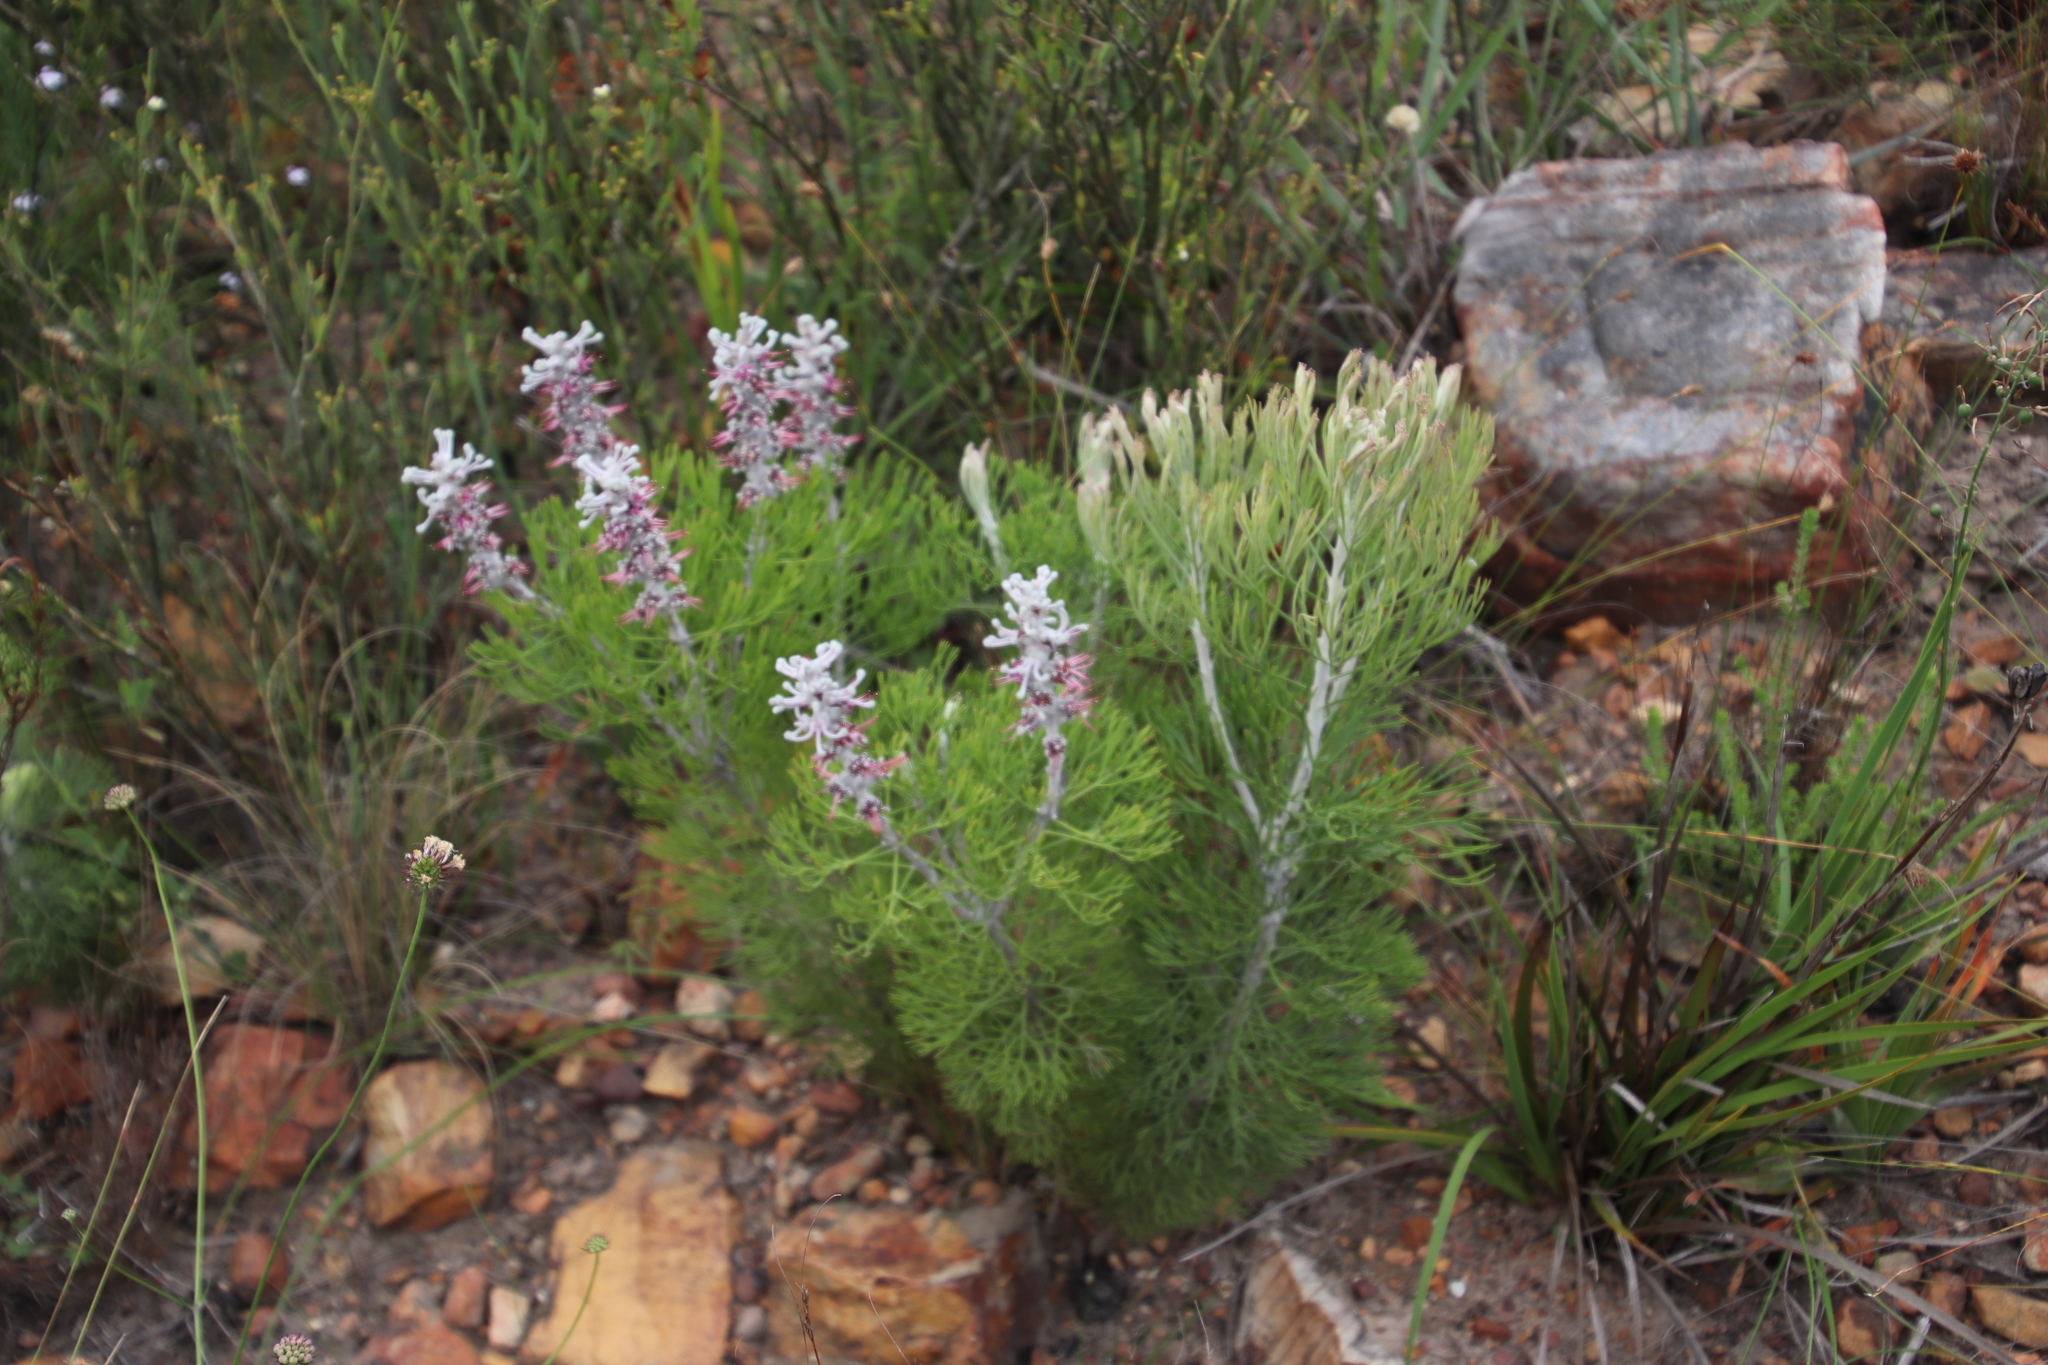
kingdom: Plantae
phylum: Tracheophyta
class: Magnoliopsida
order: Proteales
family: Proteaceae
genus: Paranomus
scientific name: Paranomus dispersus
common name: Long-head sceptre
